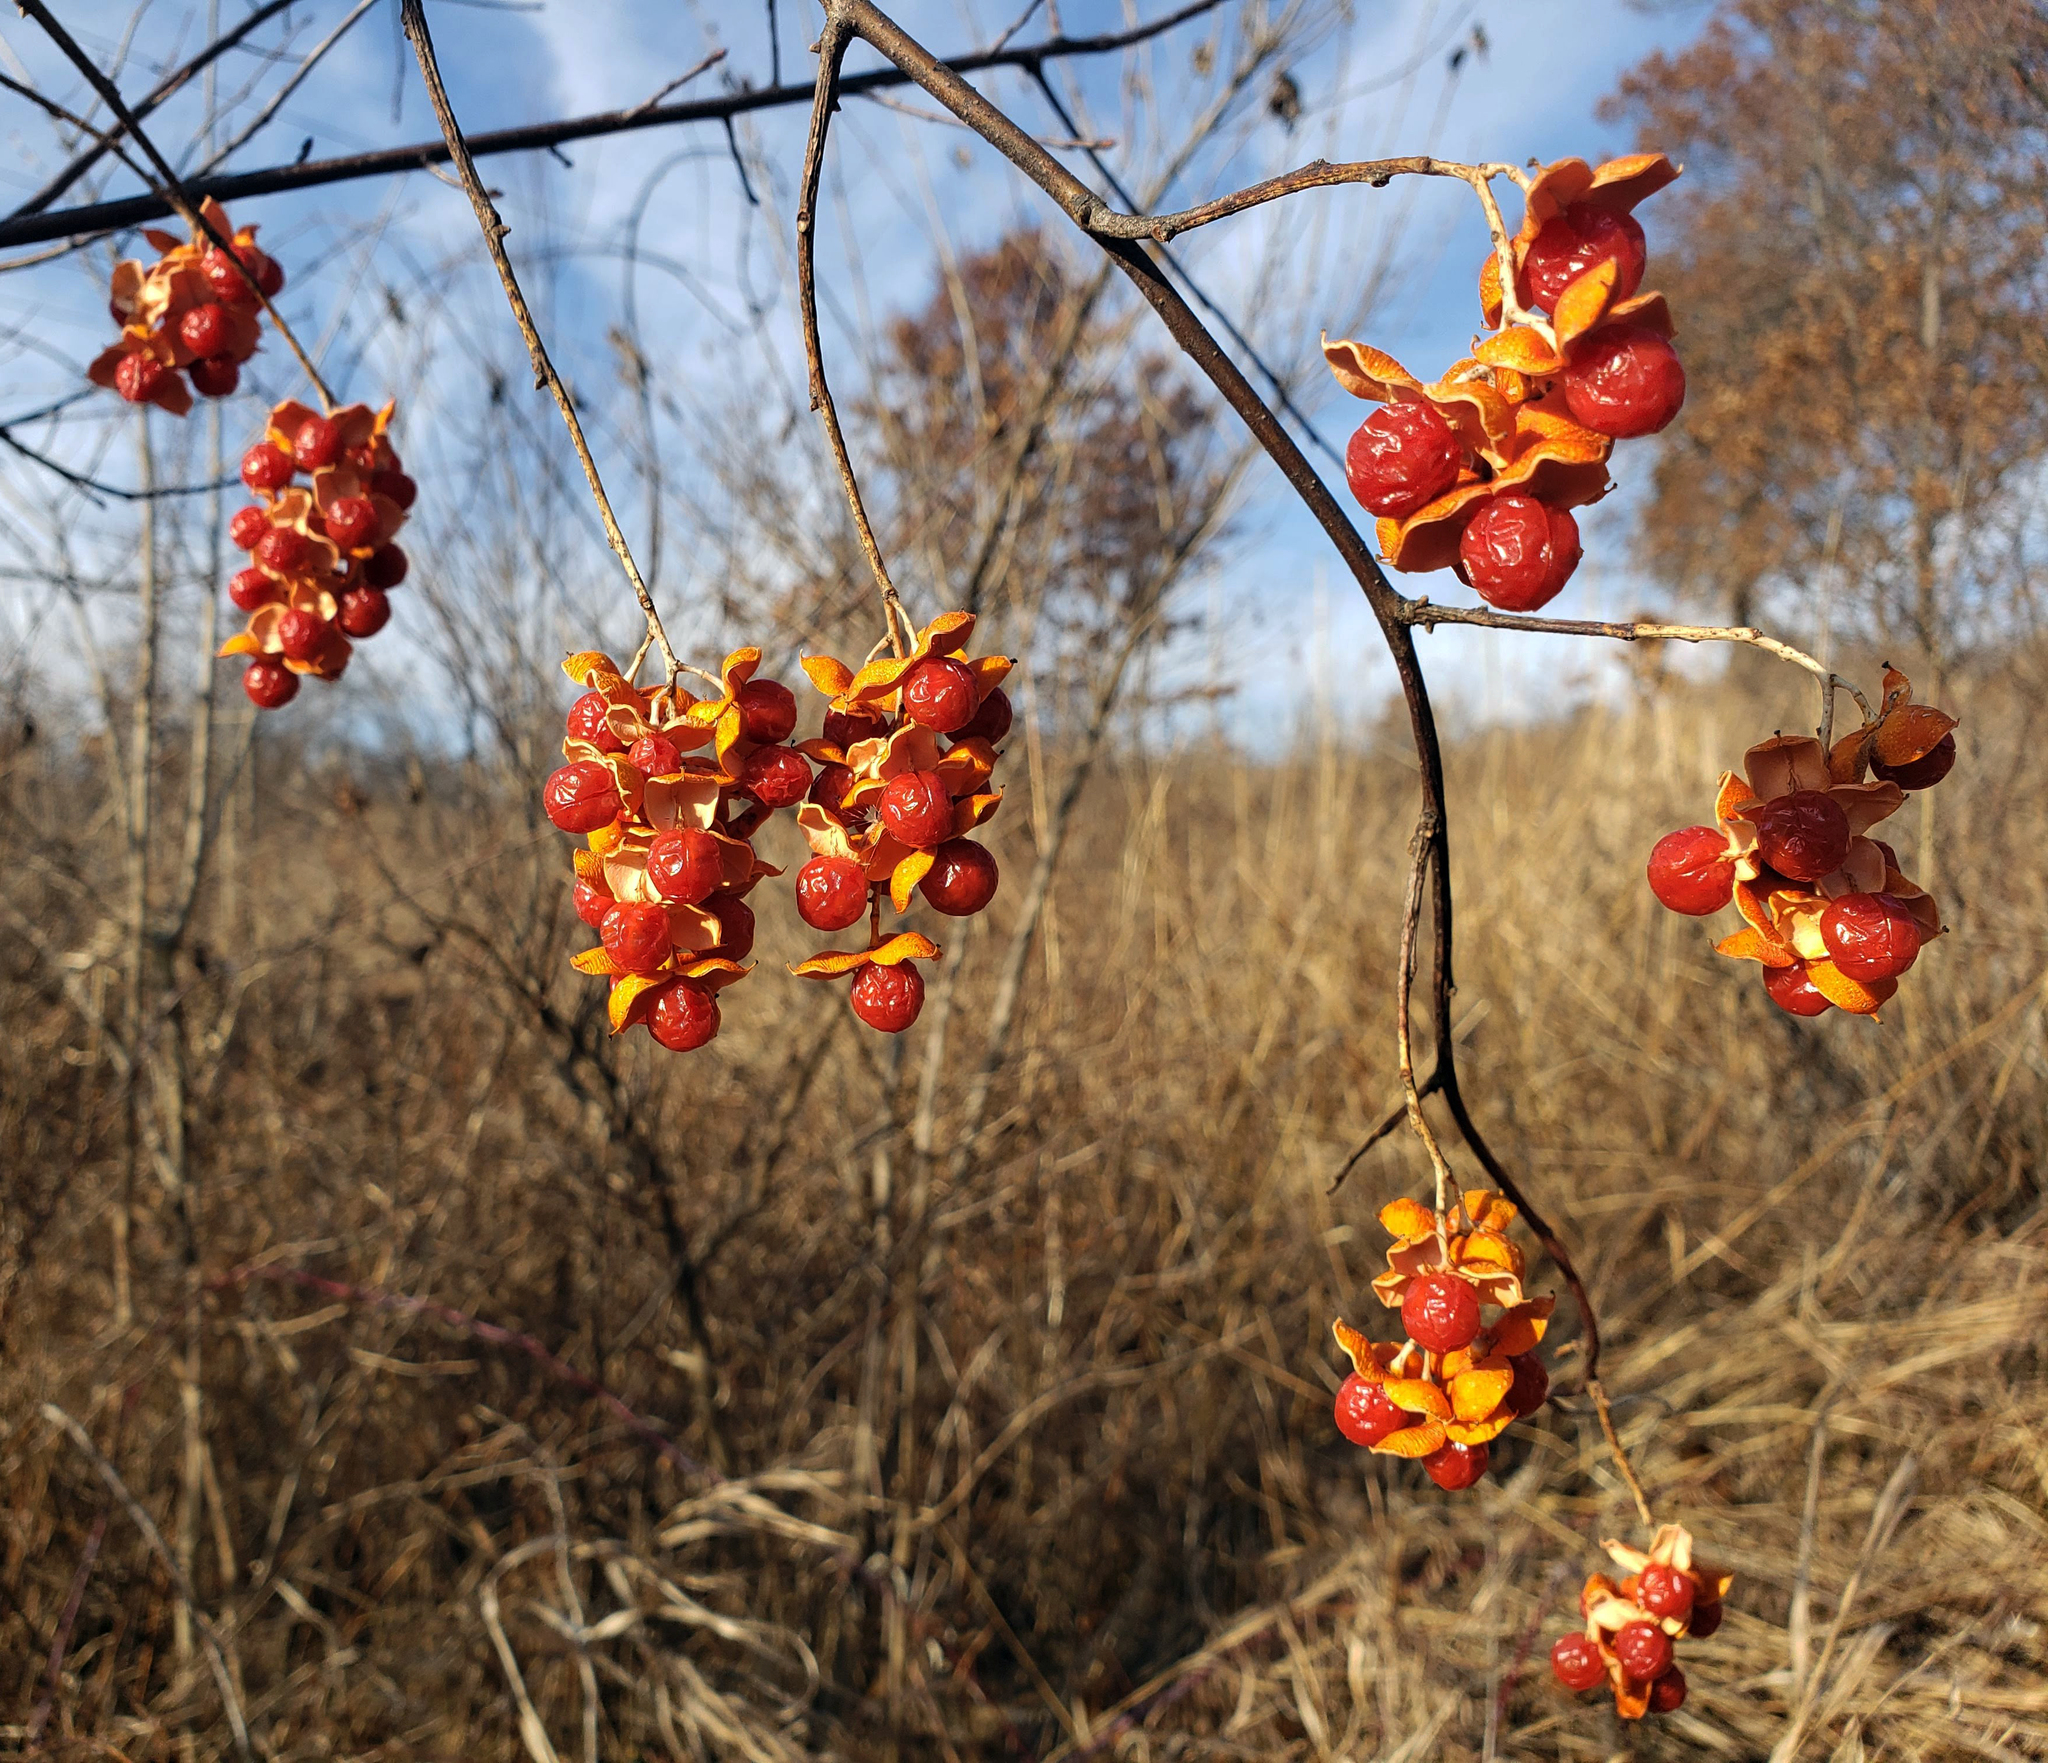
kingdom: Plantae
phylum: Tracheophyta
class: Magnoliopsida
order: Celastrales
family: Celastraceae
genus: Celastrus
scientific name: Celastrus scandens
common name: American bittersweet
